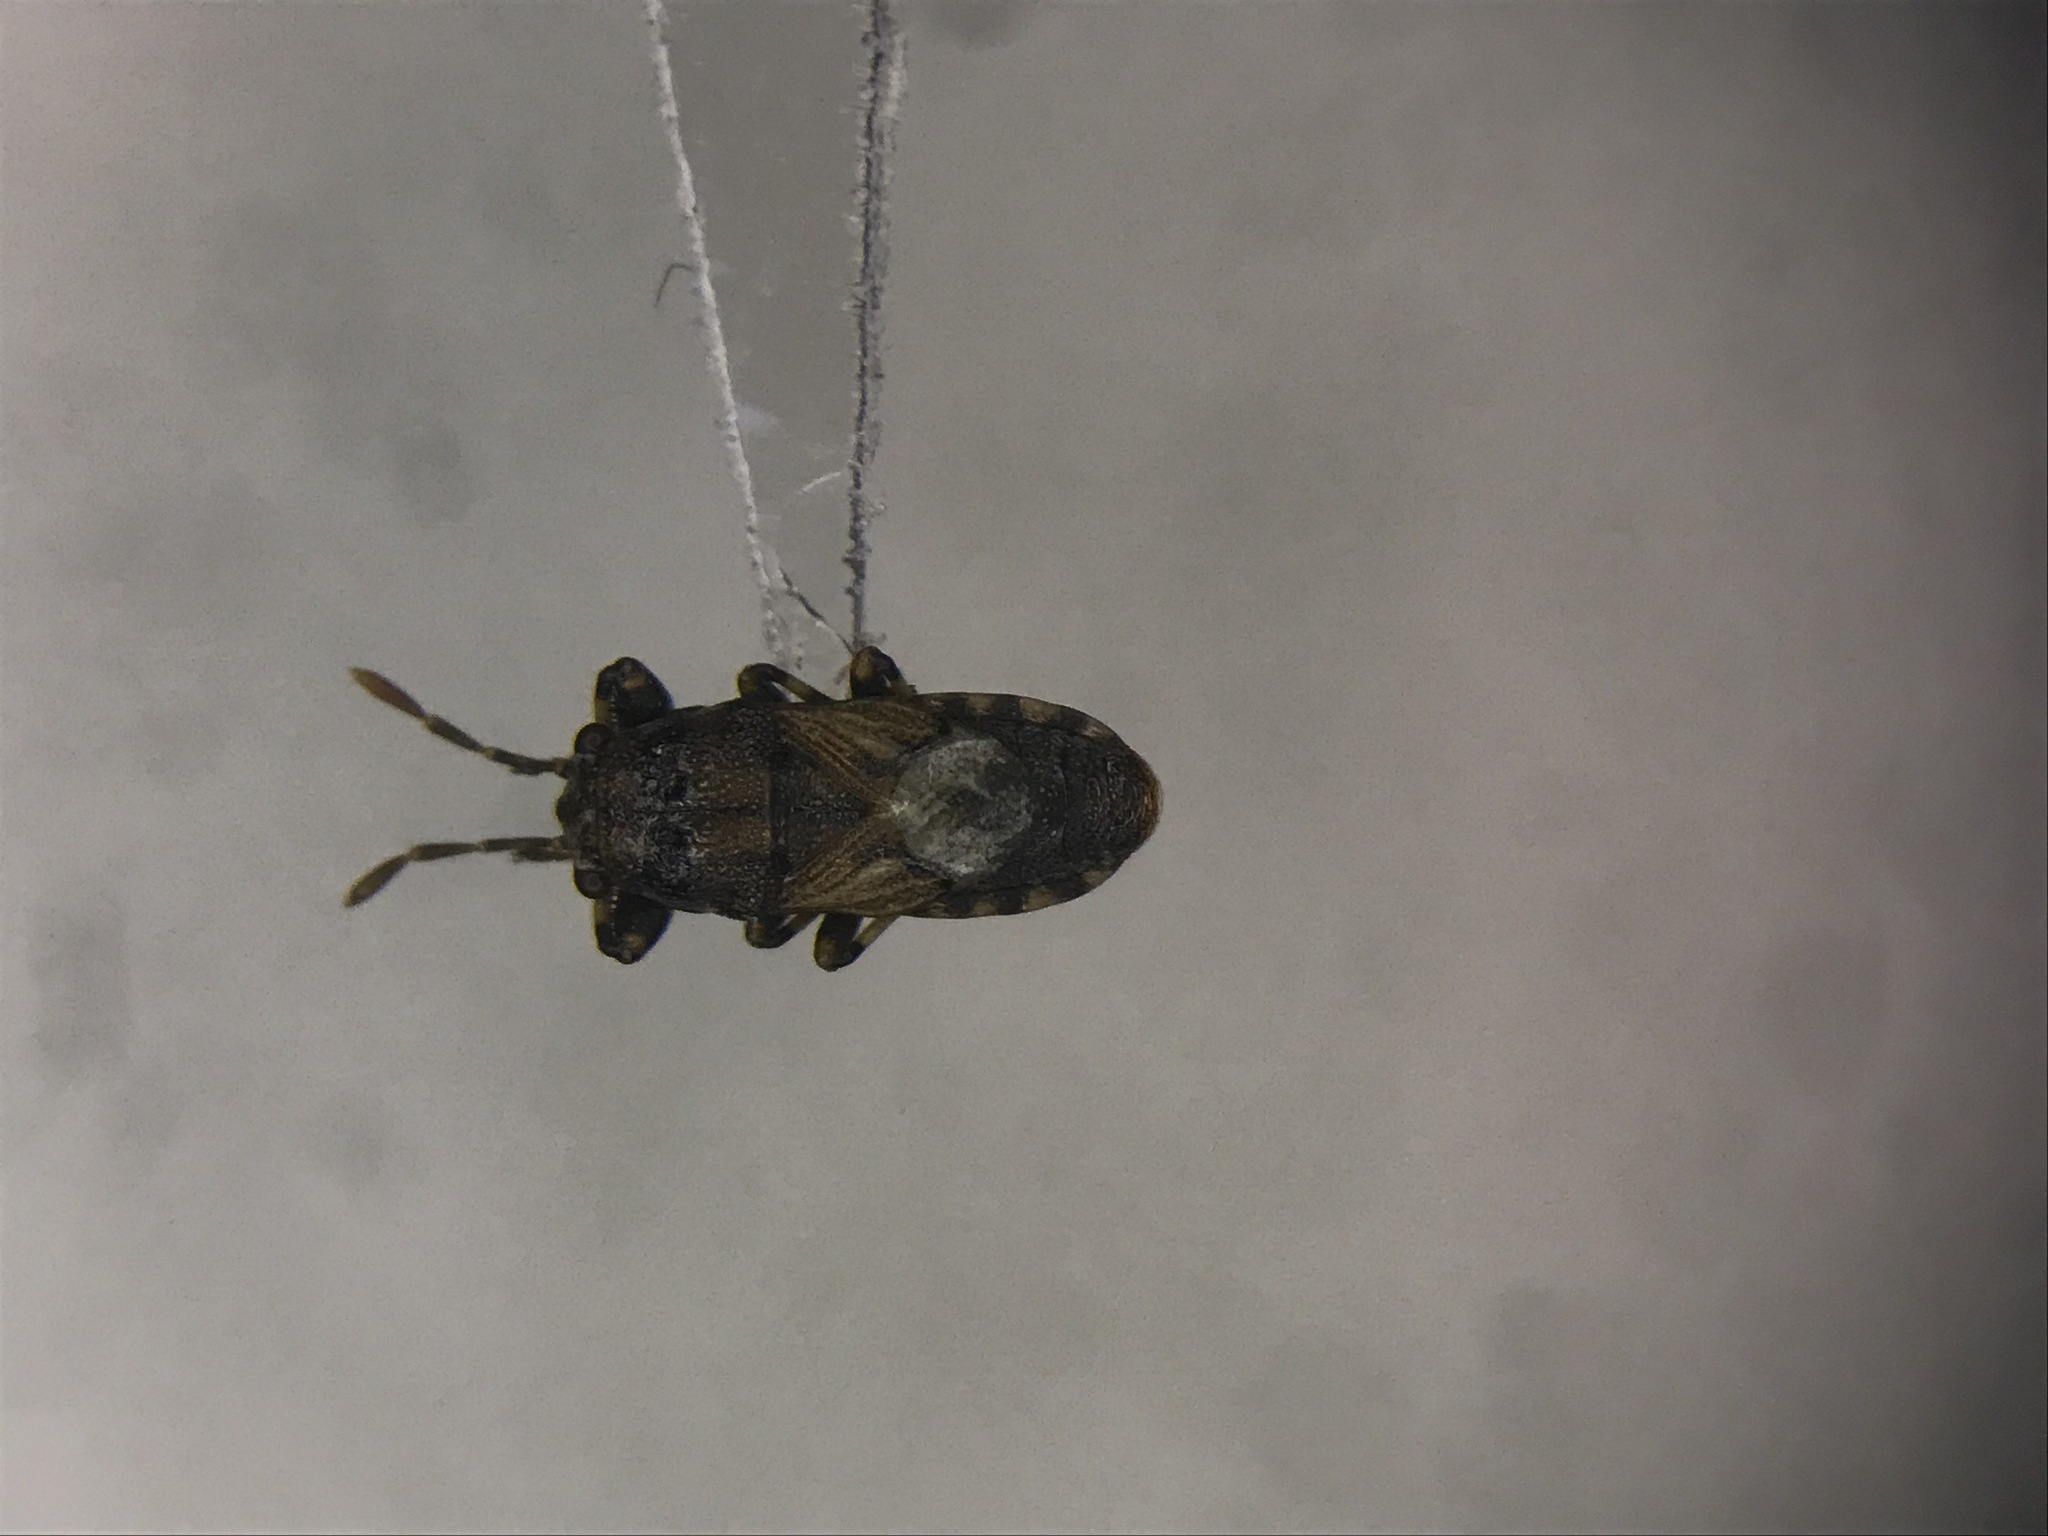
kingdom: Animalia
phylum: Arthropoda
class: Insecta
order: Hemiptera
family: Pachygronthidae
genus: Phlegyas
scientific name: Phlegyas abbreviatus
